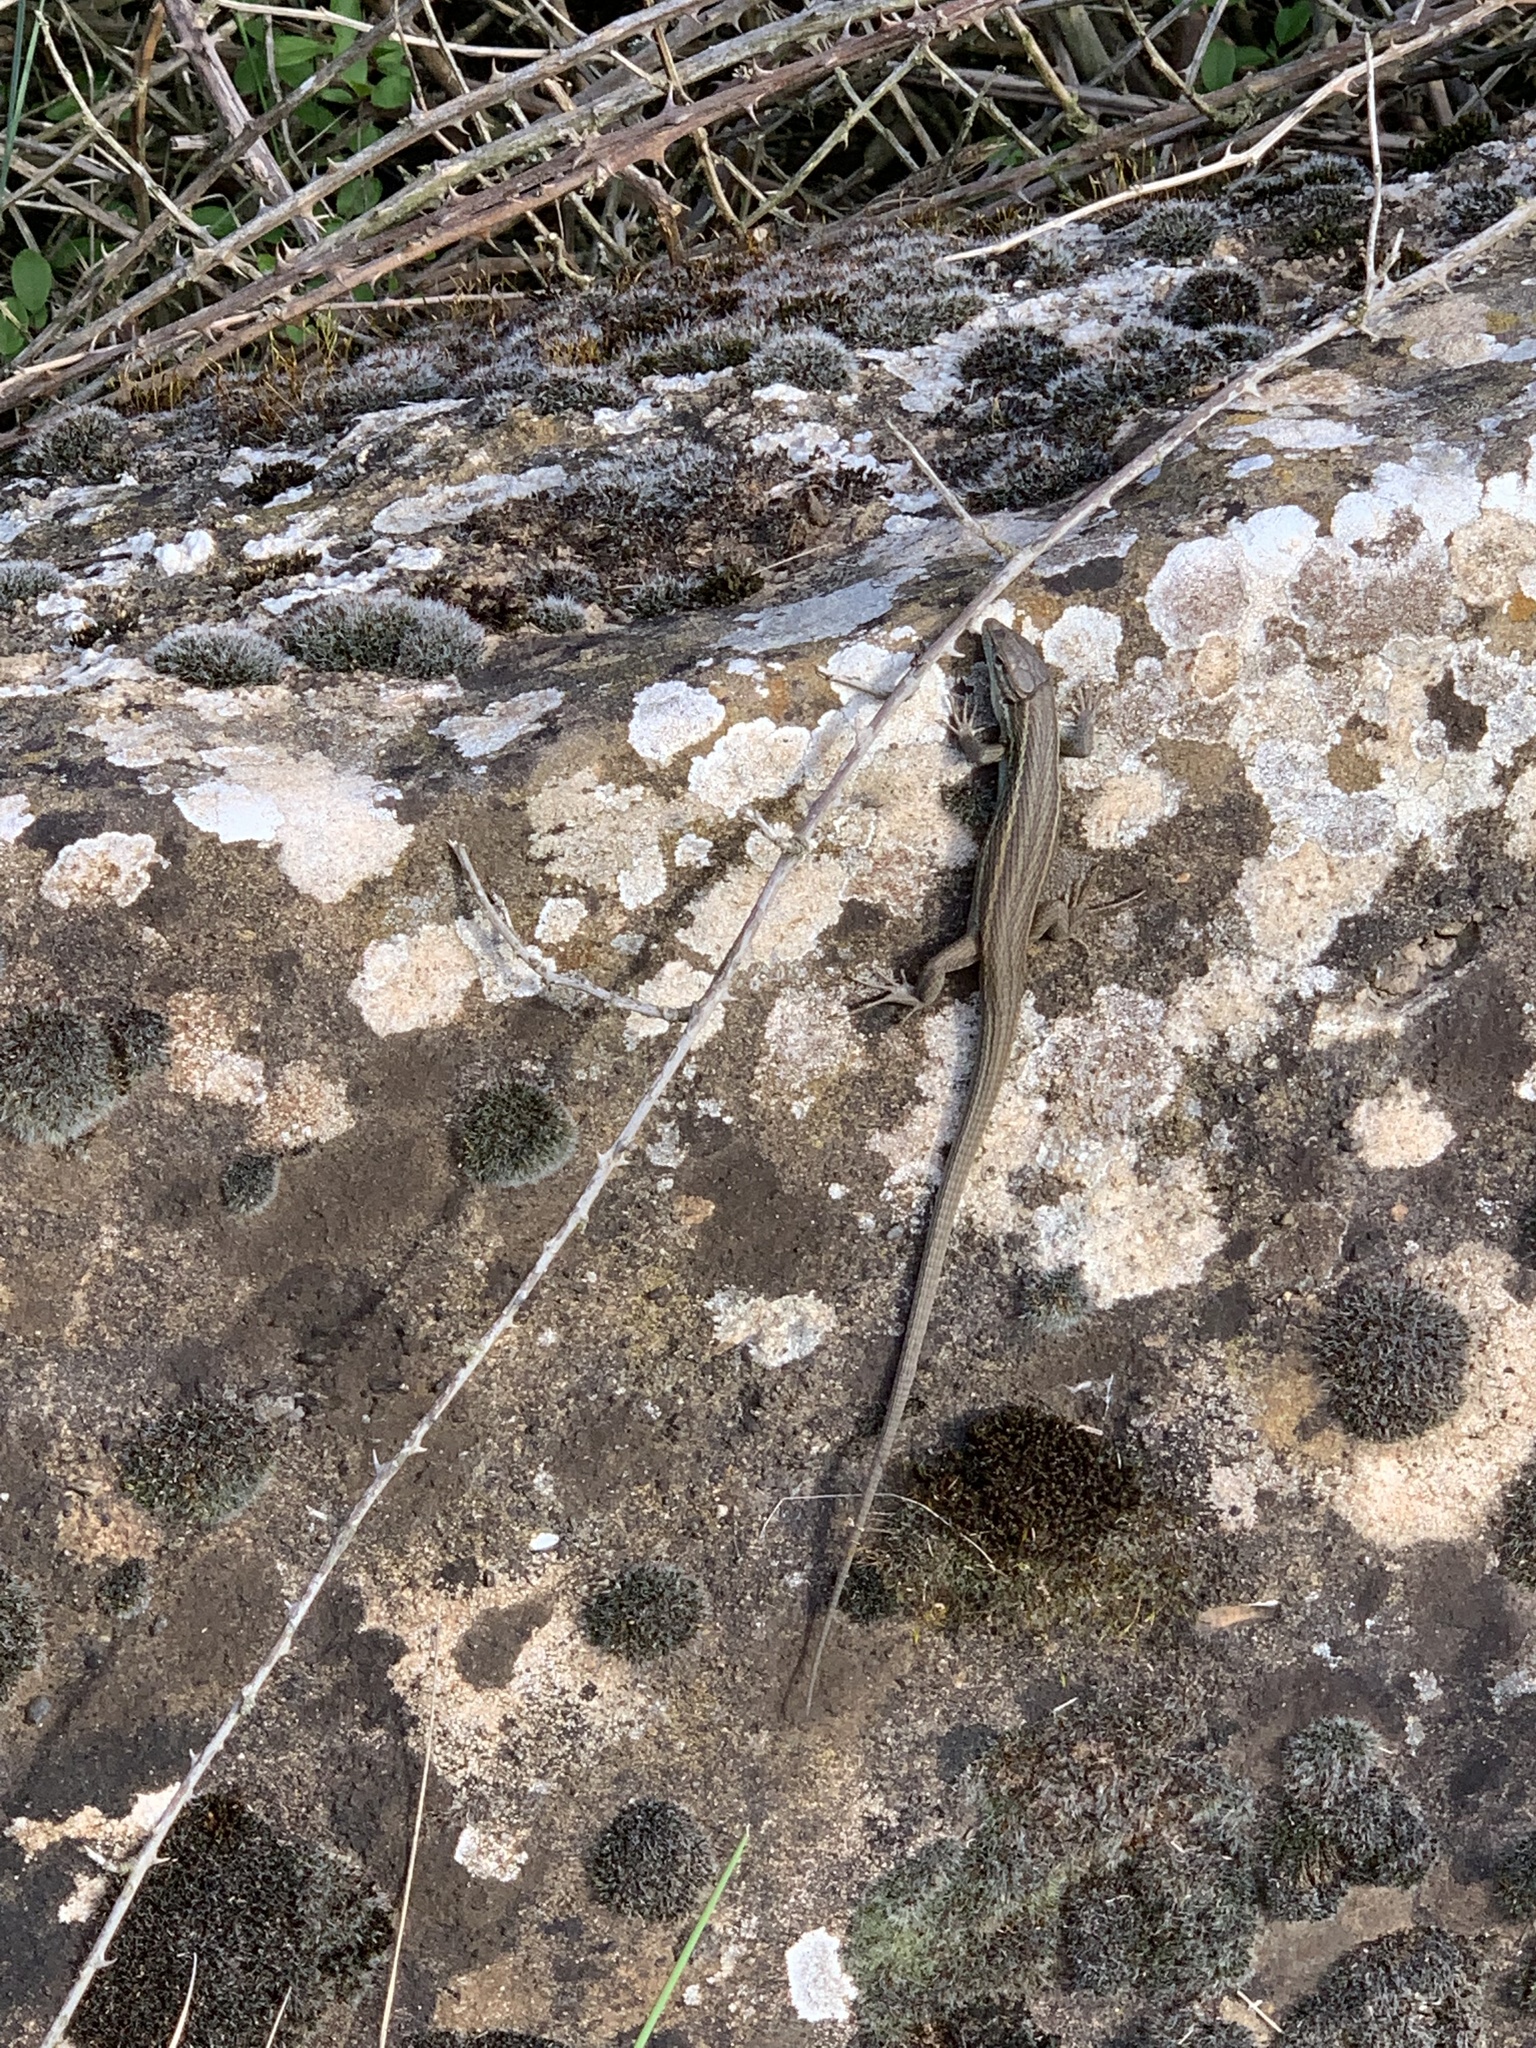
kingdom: Animalia
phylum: Chordata
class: Squamata
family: Lacertidae
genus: Psammodromus
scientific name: Psammodromus algirus
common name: Algerian psammodromus
